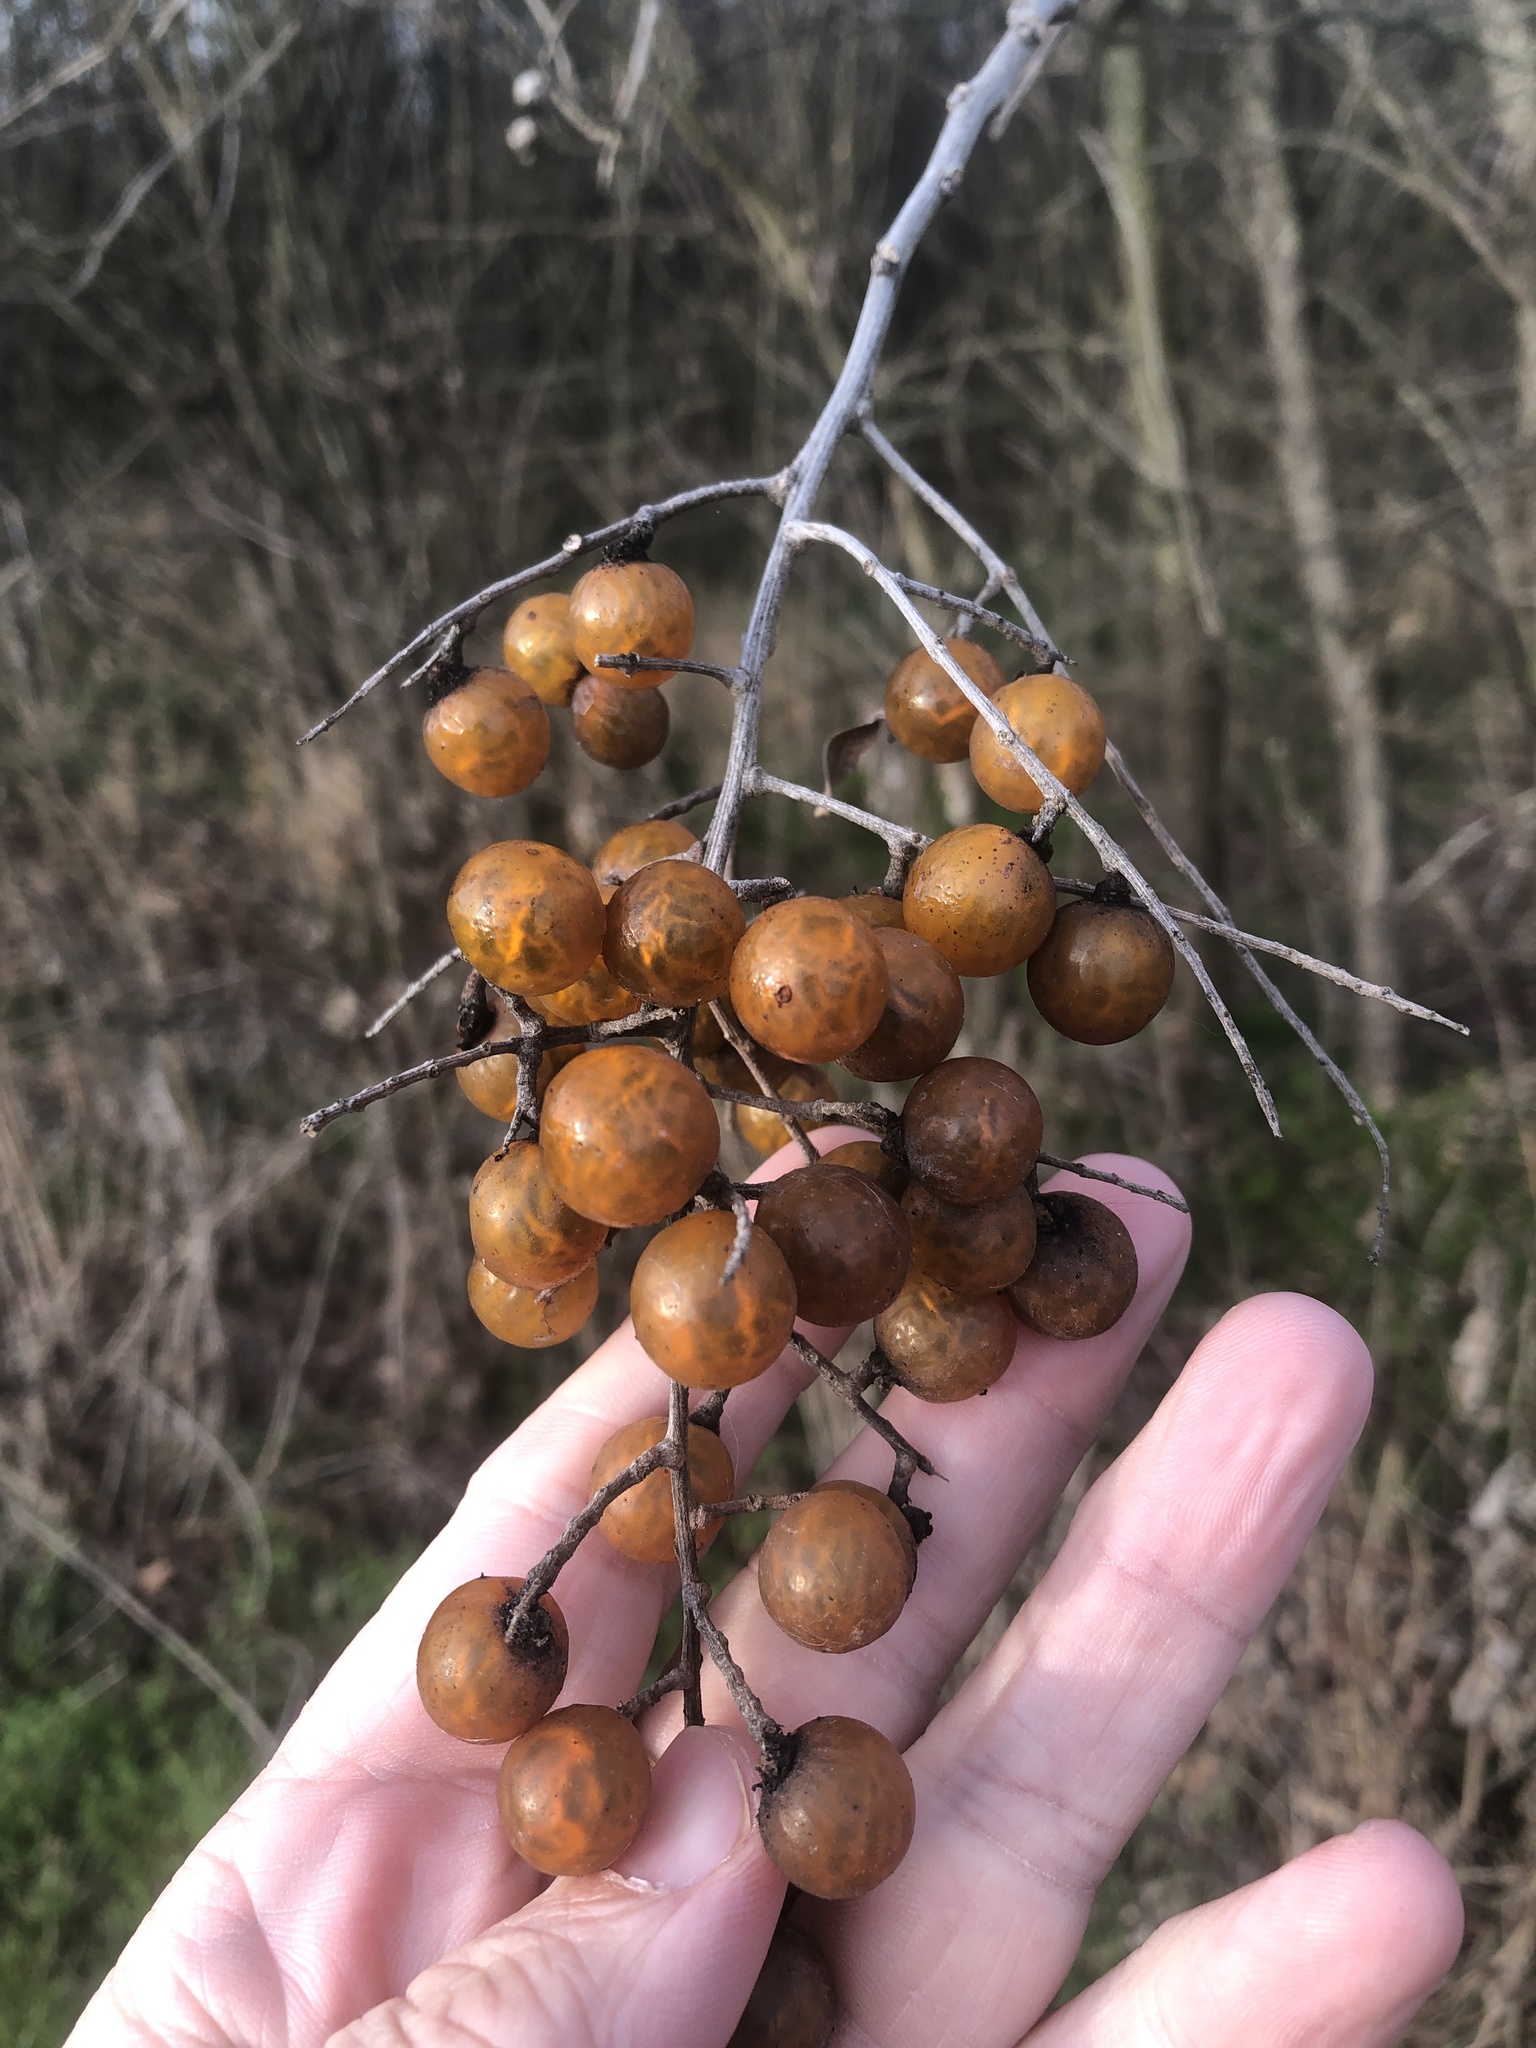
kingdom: Plantae
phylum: Tracheophyta
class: Magnoliopsida
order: Sapindales
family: Sapindaceae
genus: Sapindus
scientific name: Sapindus drummondii
